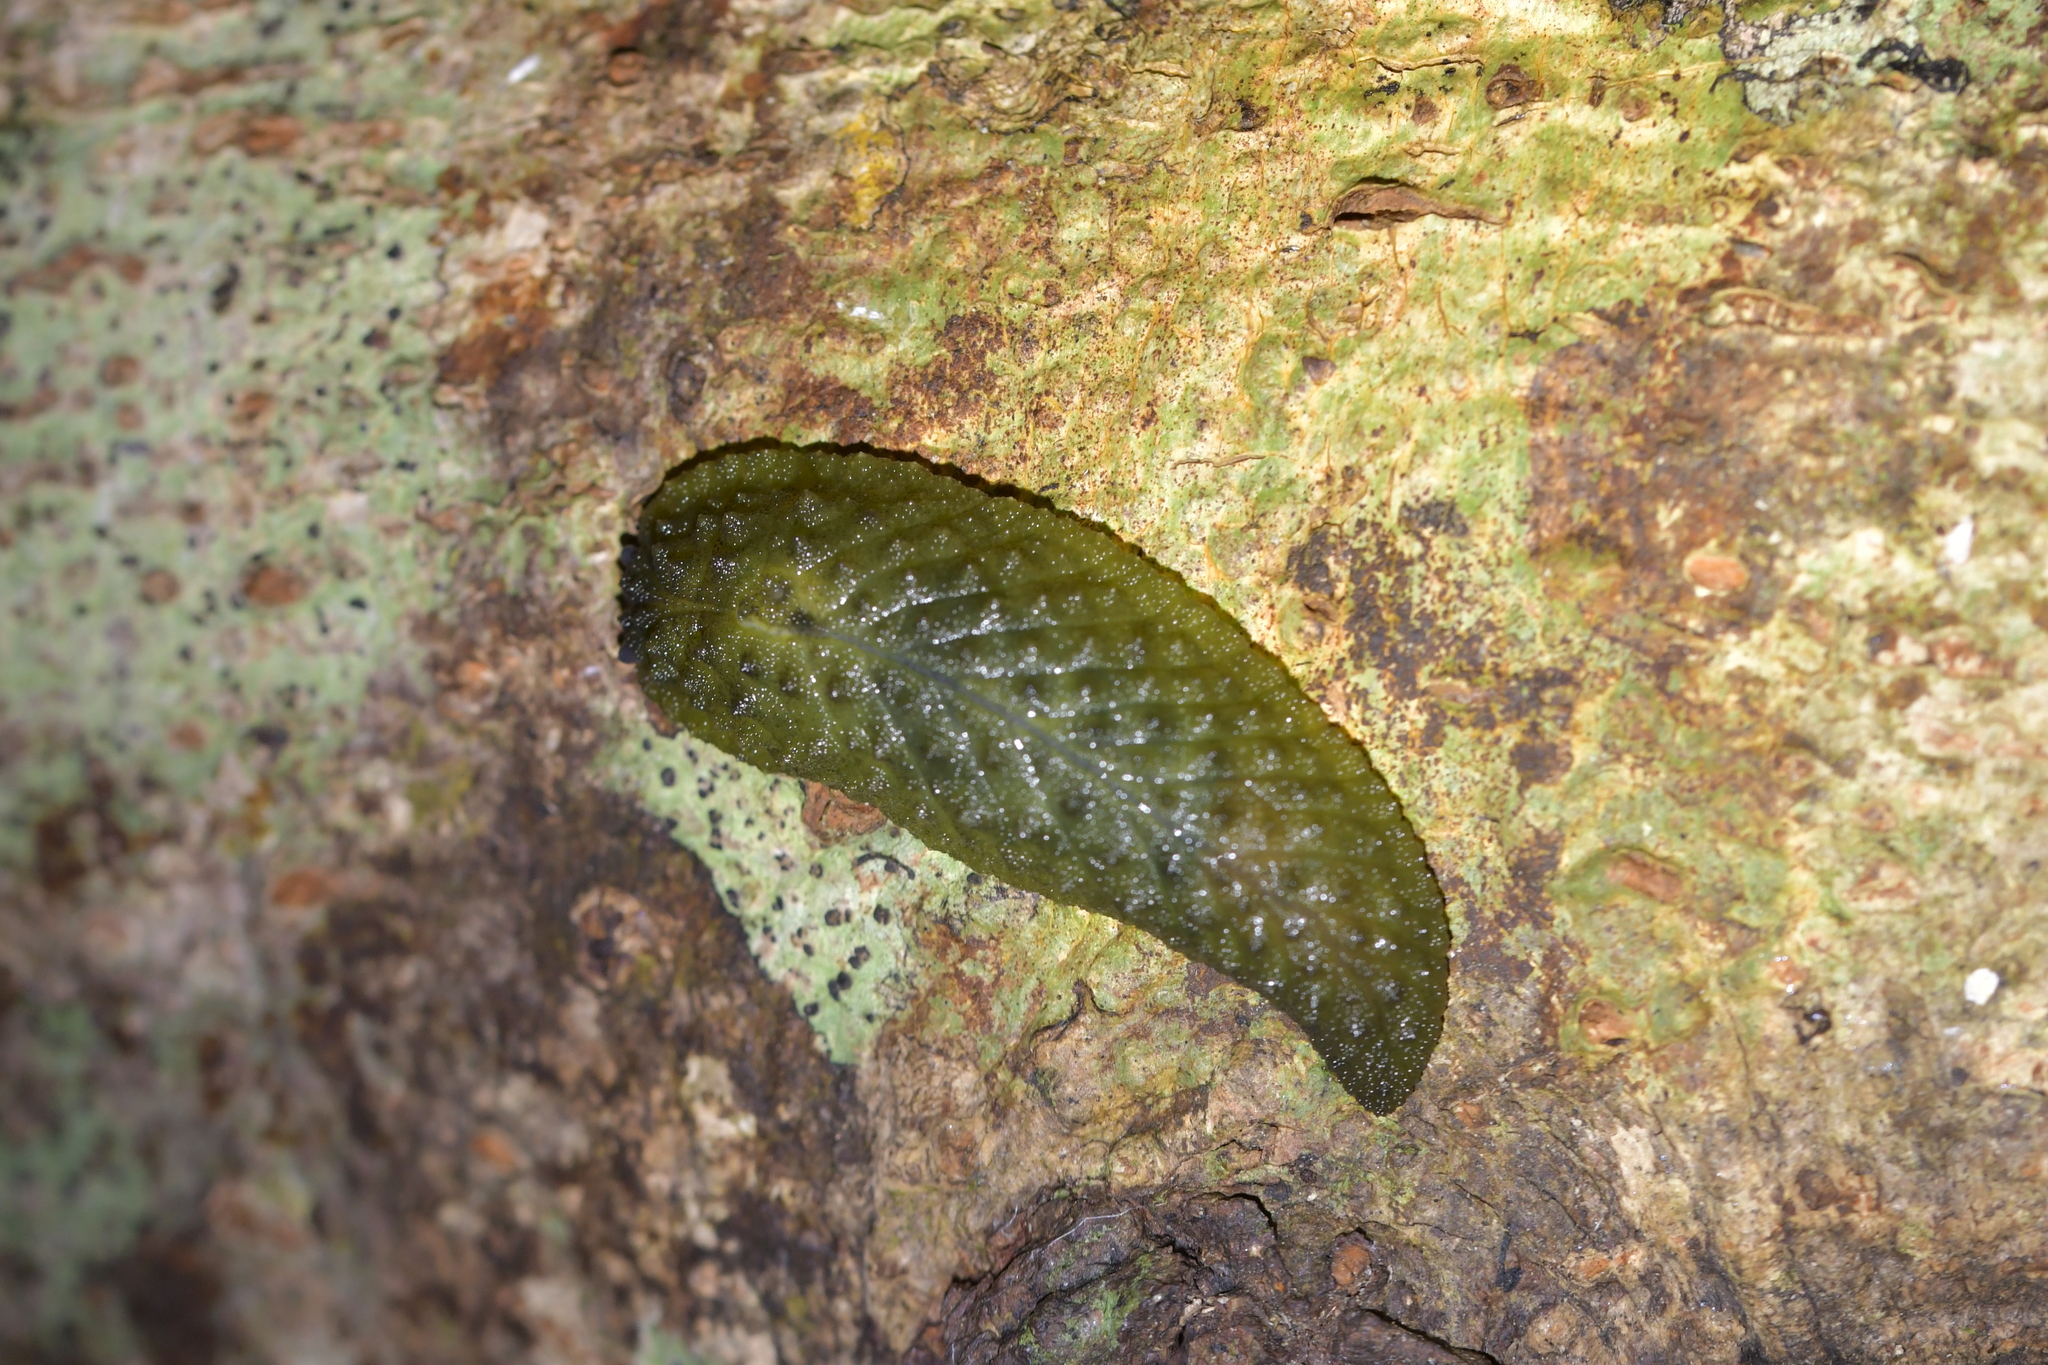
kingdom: Animalia
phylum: Mollusca
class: Gastropoda
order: Stylommatophora
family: Athoracophoridae
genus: Athoracophorus
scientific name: Athoracophorus papillatus
